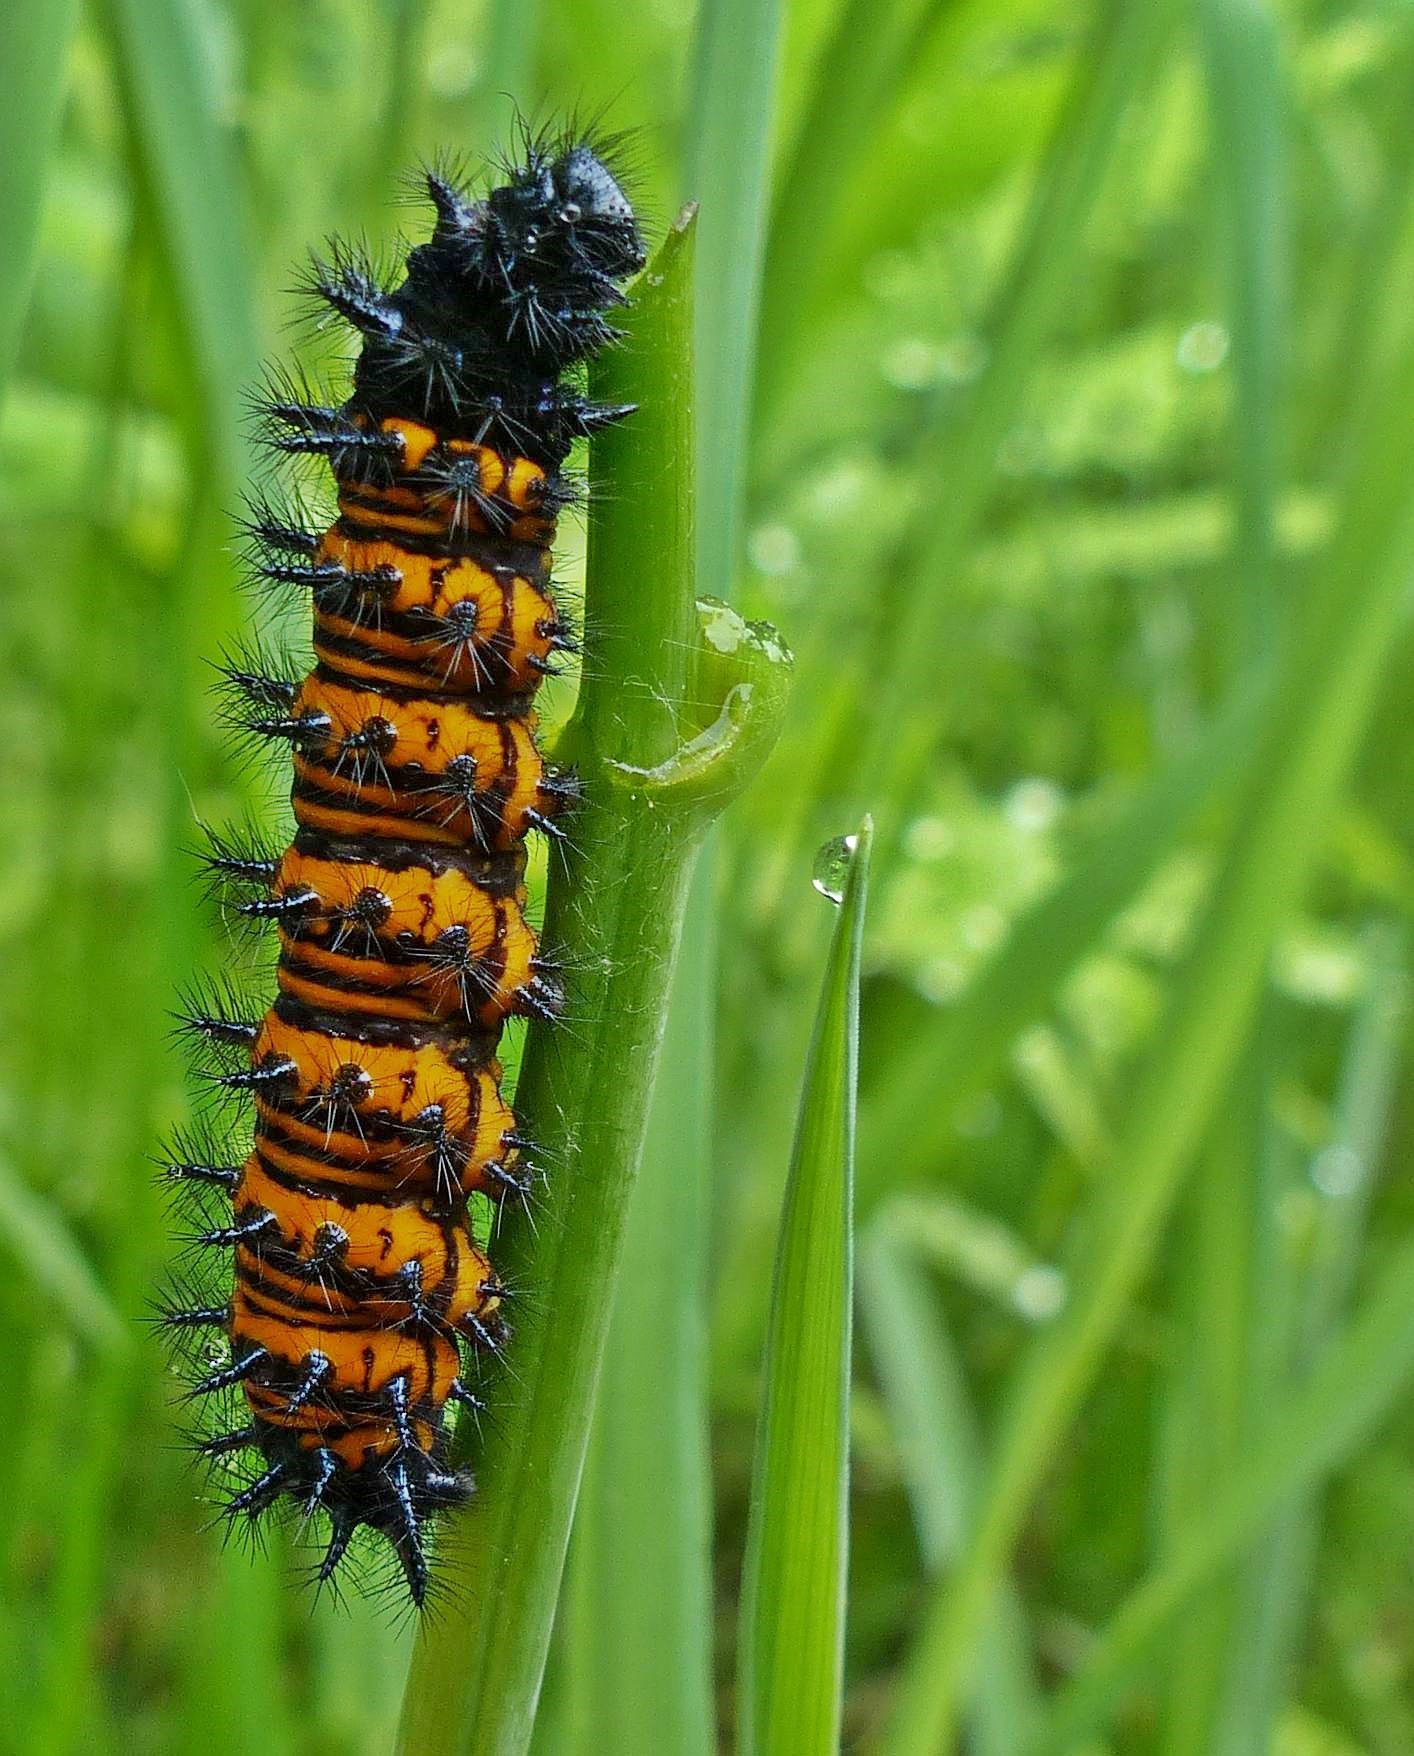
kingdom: Animalia
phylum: Arthropoda
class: Insecta
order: Lepidoptera
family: Nymphalidae
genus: Euphydryas
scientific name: Euphydryas phaeton
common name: Baltimore checkerspot
